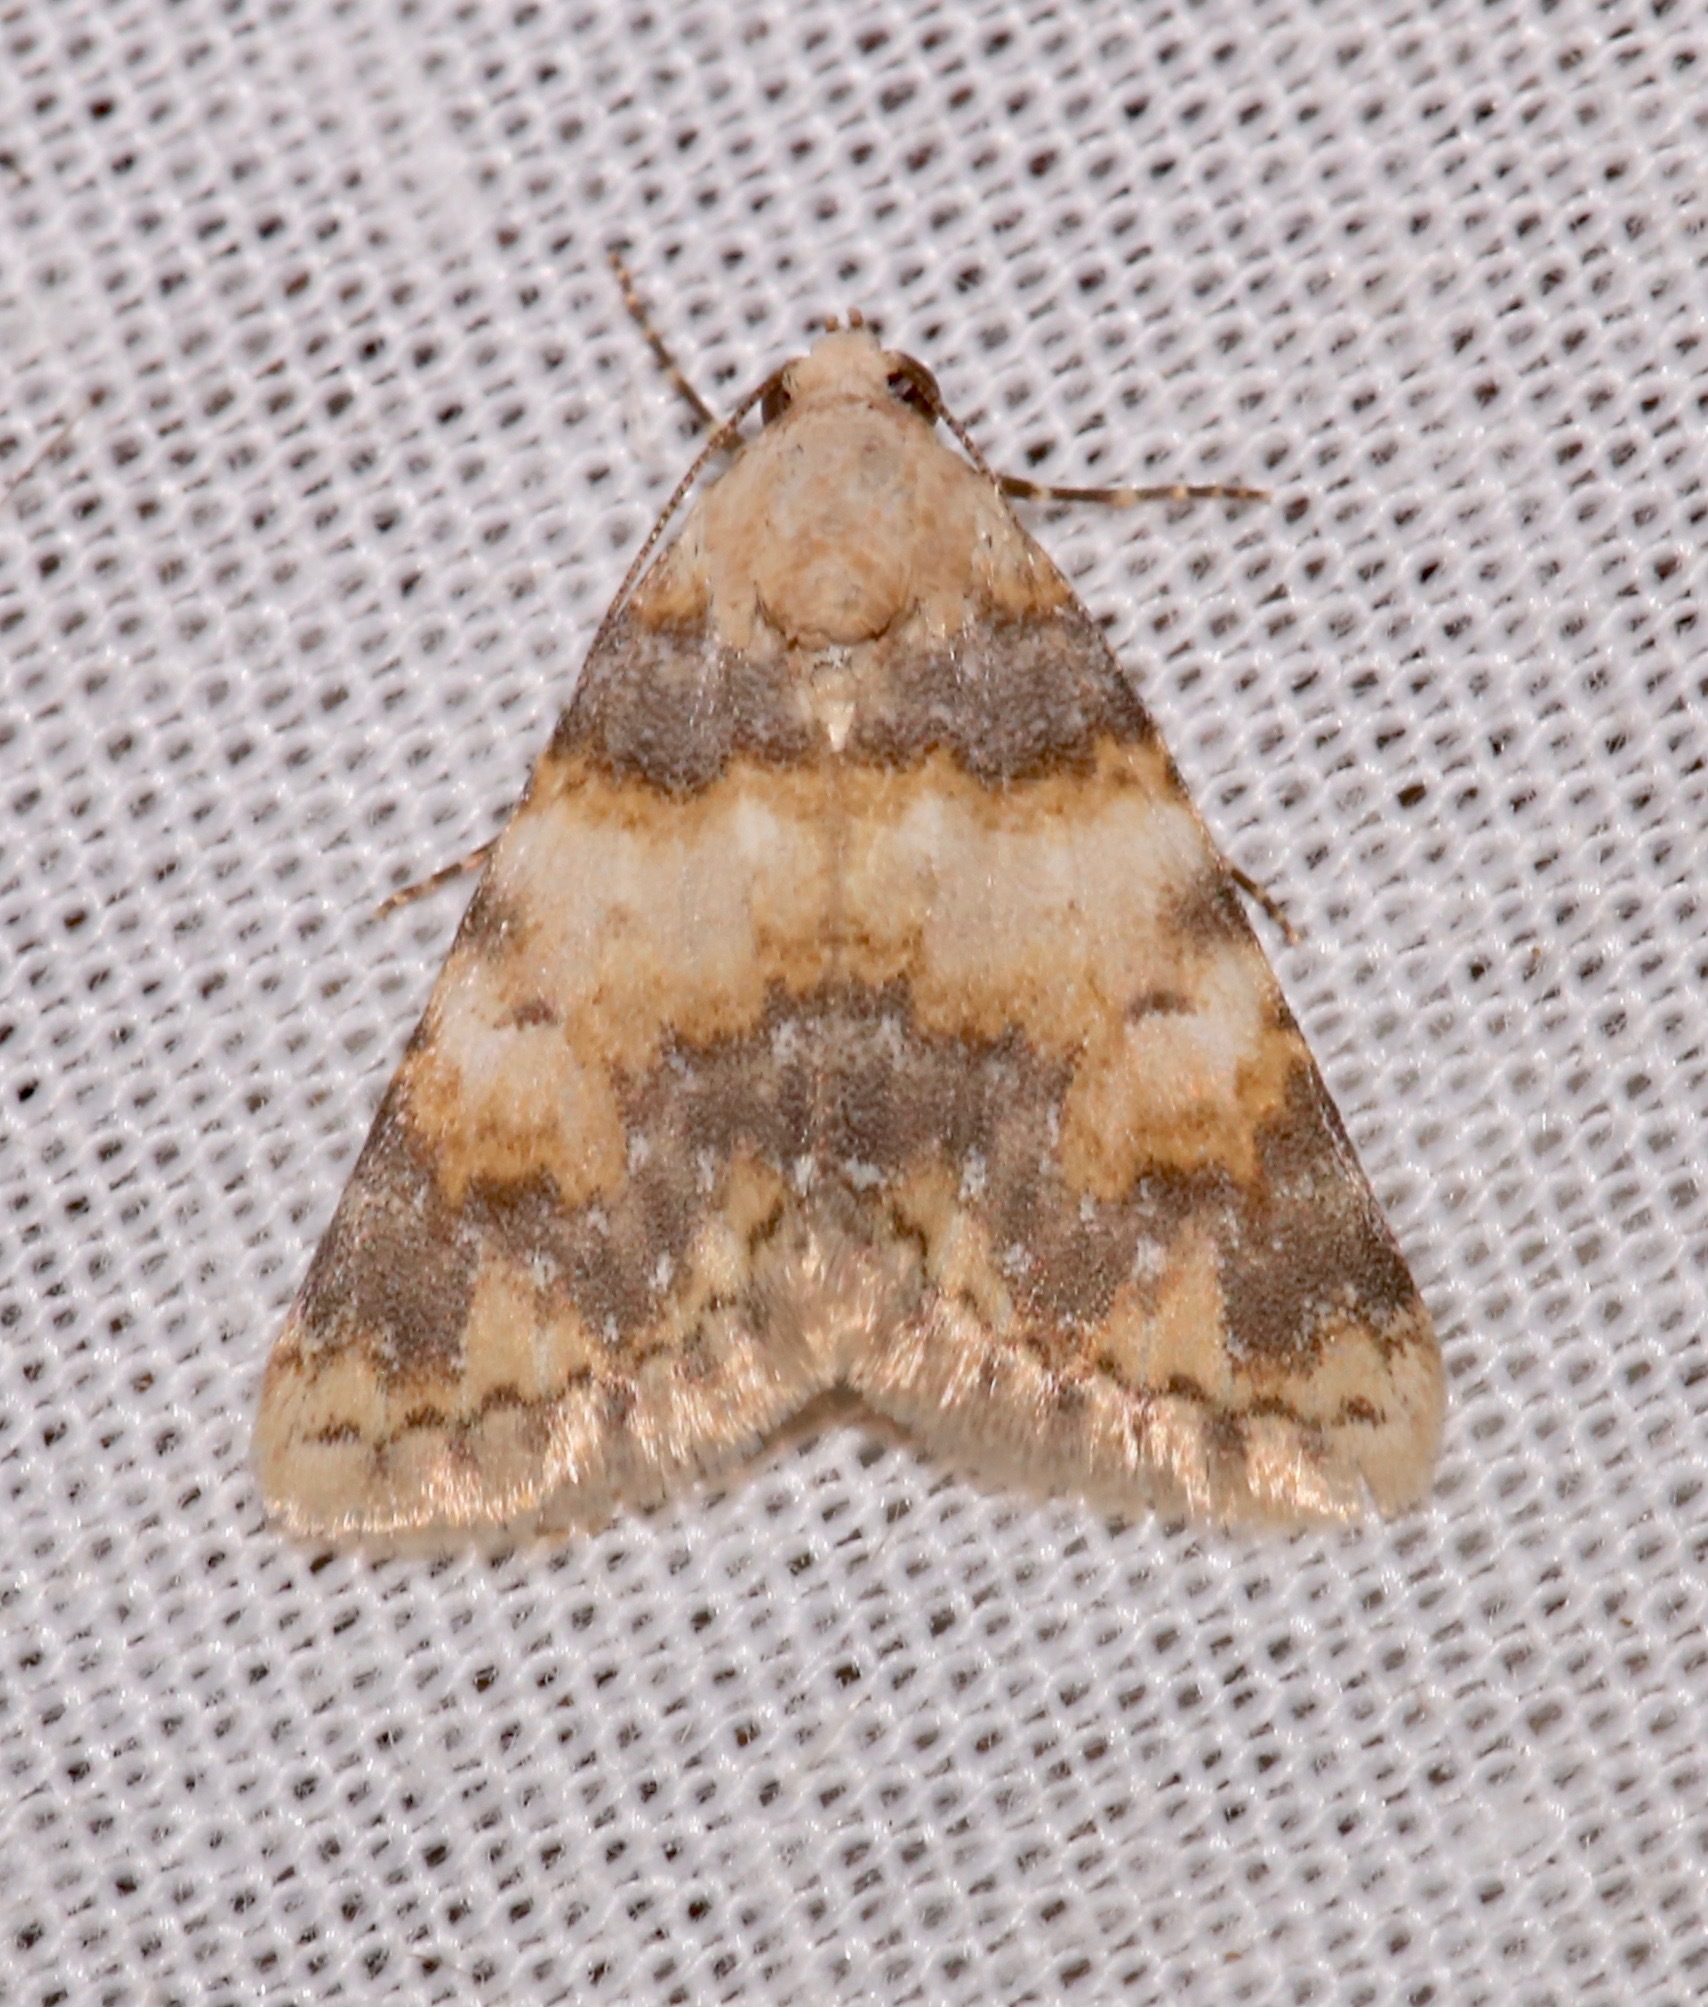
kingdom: Animalia
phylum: Arthropoda
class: Insecta
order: Lepidoptera
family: Noctuidae
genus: Allerastria
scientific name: Allerastria albiciliatus
